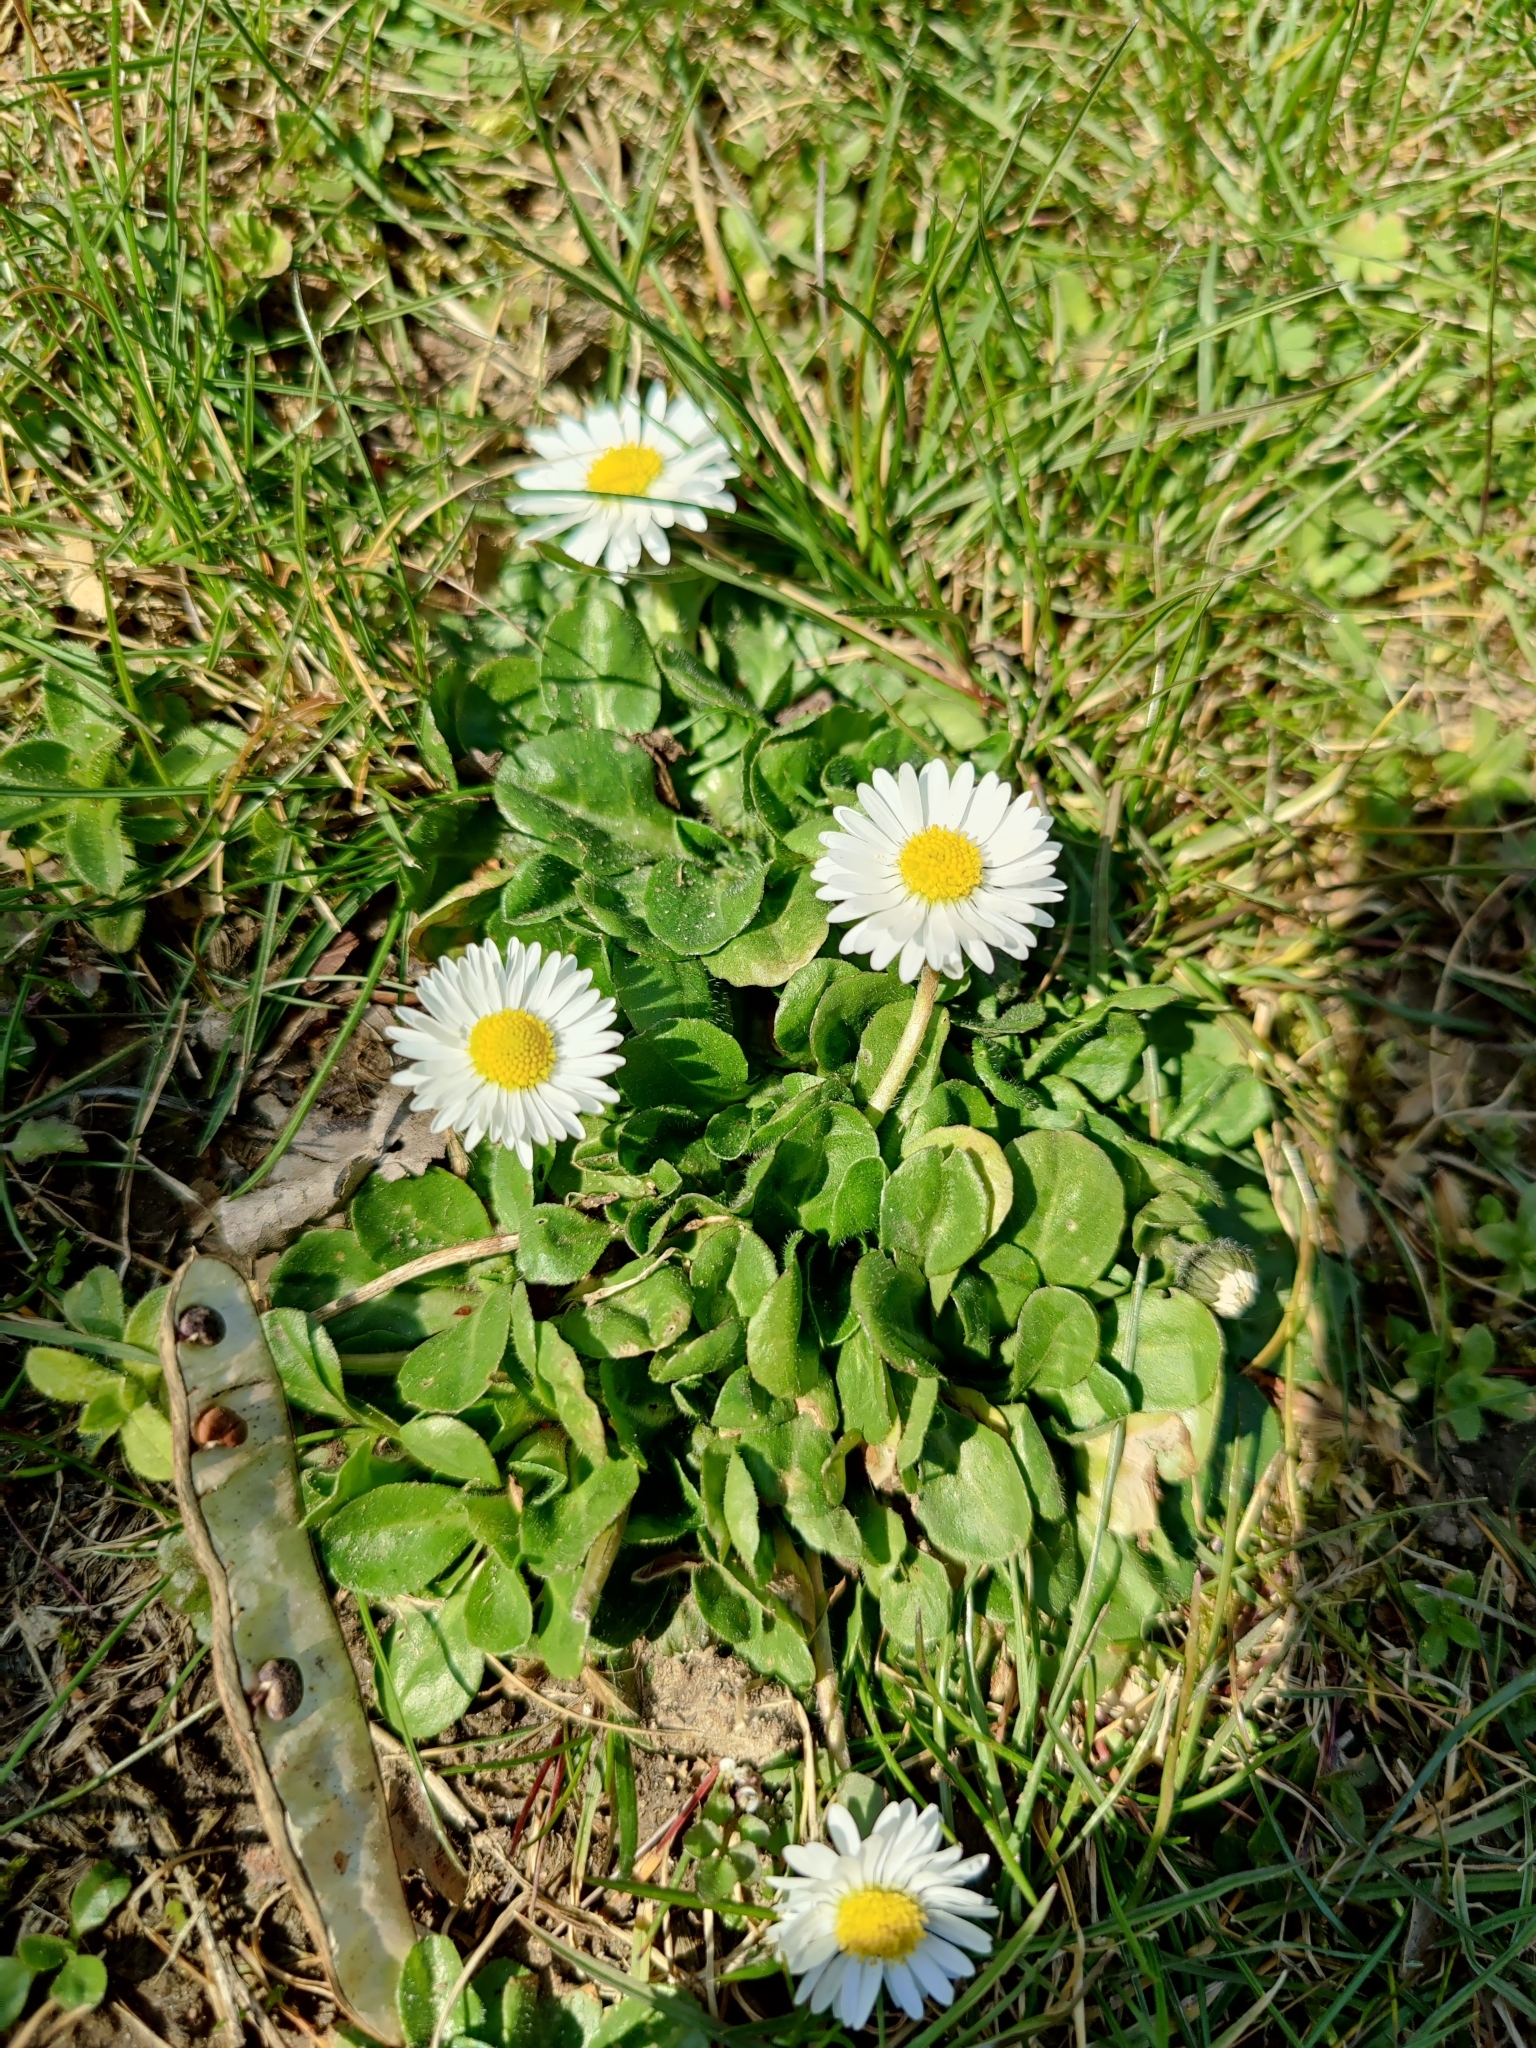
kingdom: Plantae
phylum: Tracheophyta
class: Magnoliopsida
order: Asterales
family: Asteraceae
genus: Bellis
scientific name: Bellis perennis
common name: Lawndaisy
